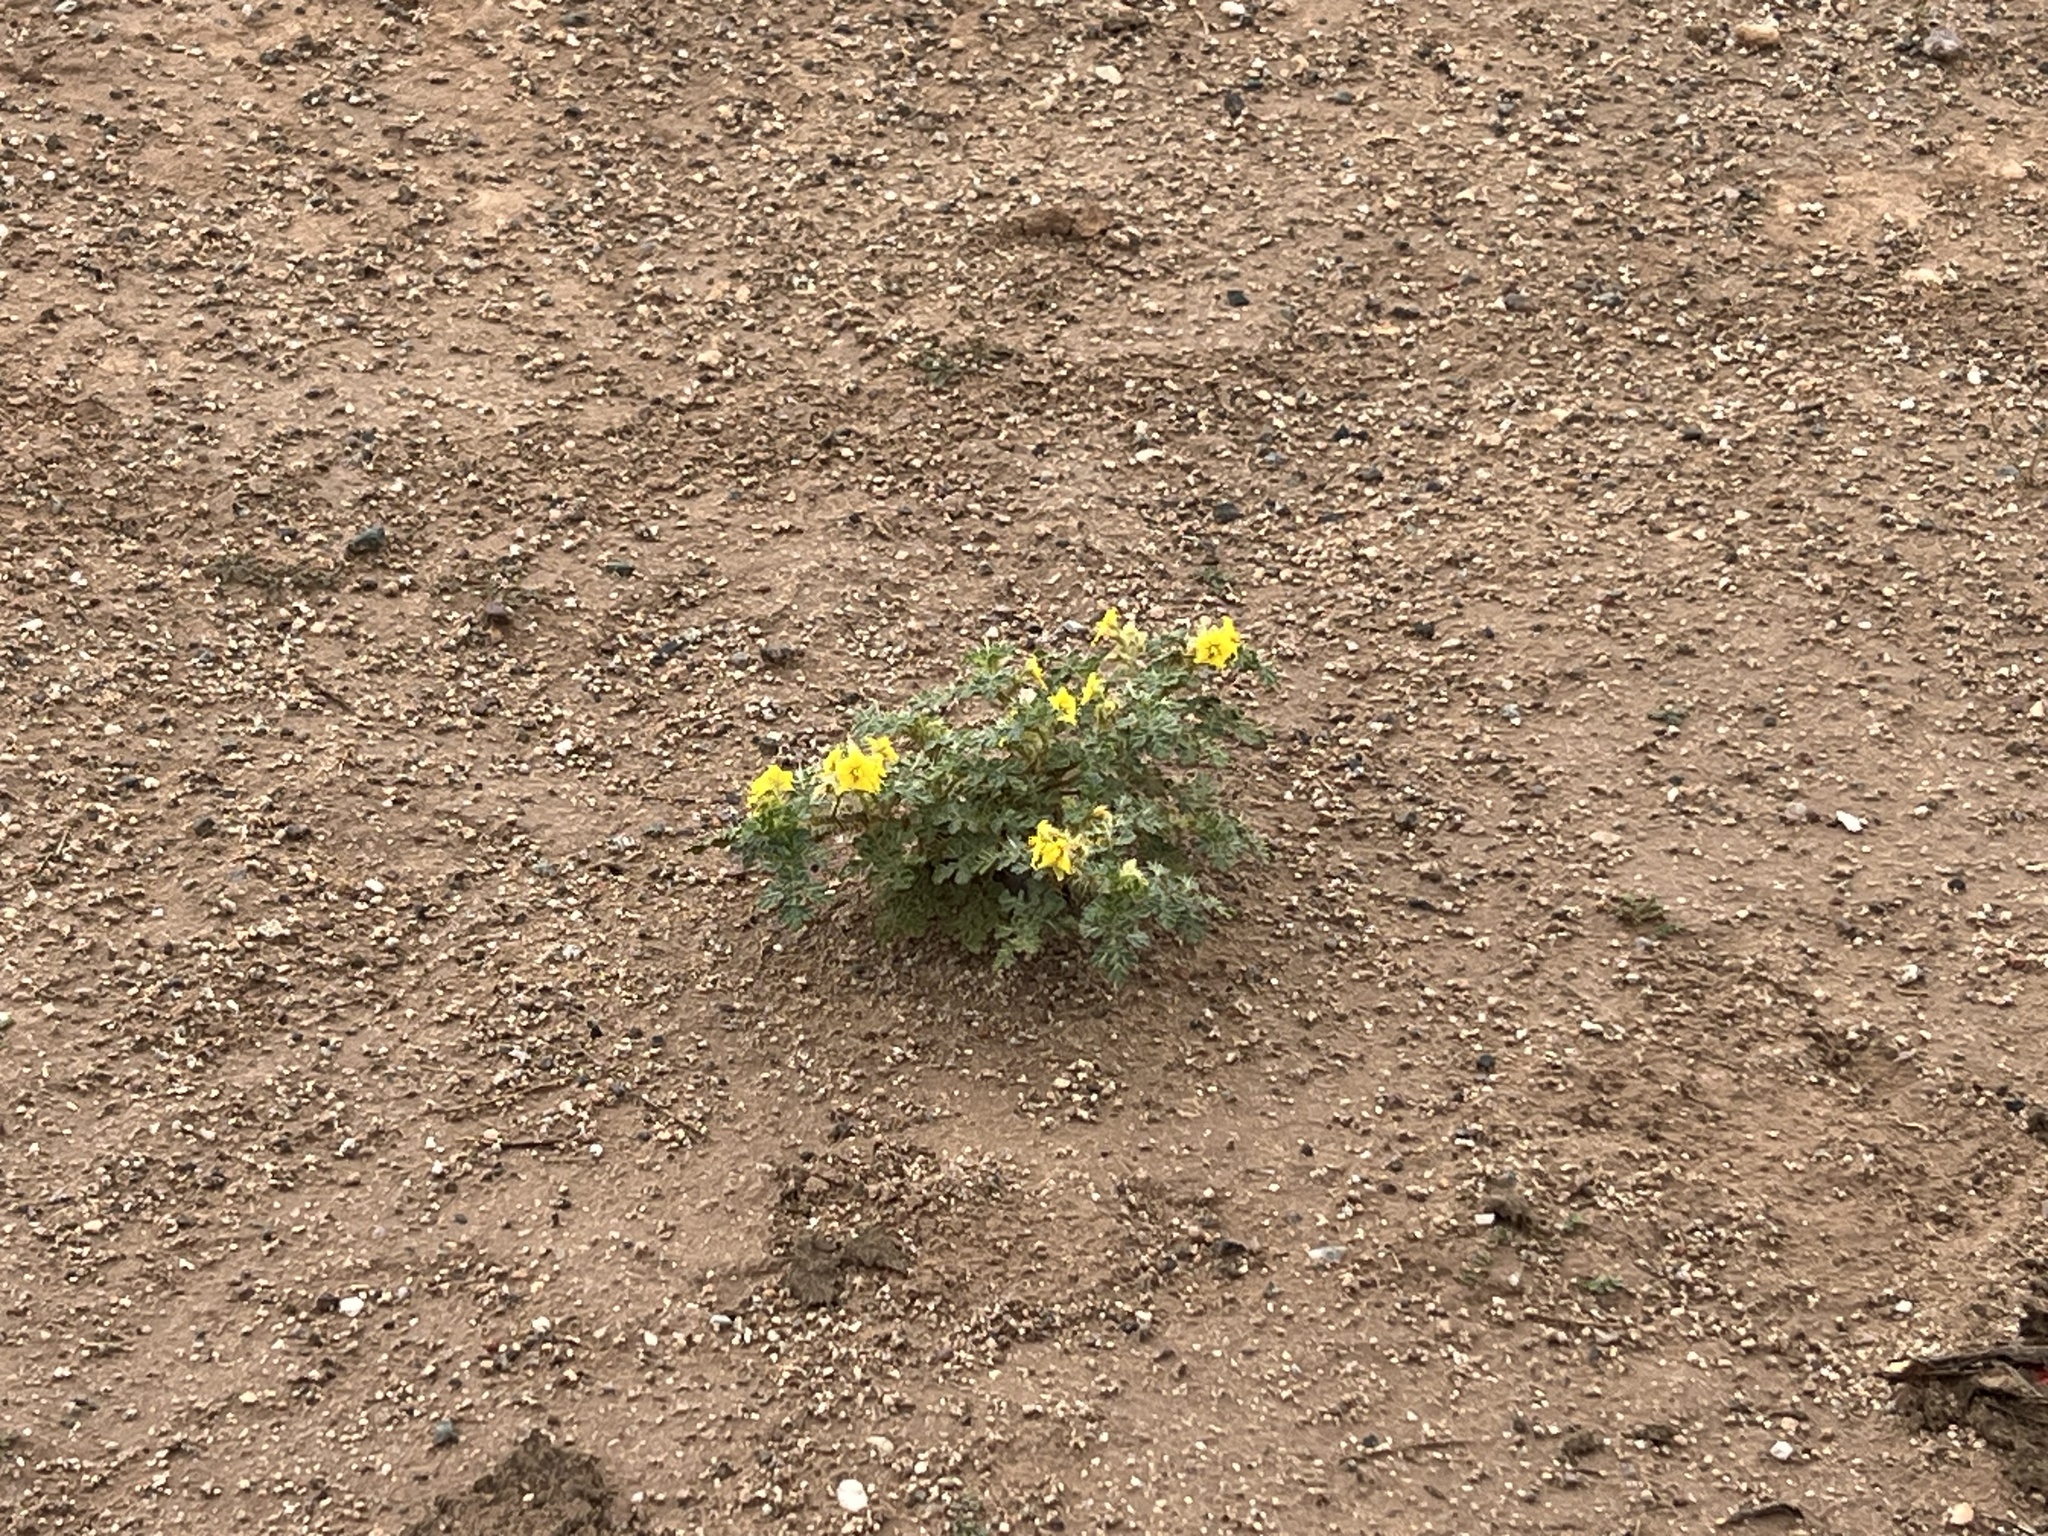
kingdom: Plantae
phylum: Tracheophyta
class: Magnoliopsida
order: Solanales
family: Solanaceae
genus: Solanum
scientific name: Solanum angustifolium
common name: Buffalobur nightshade
